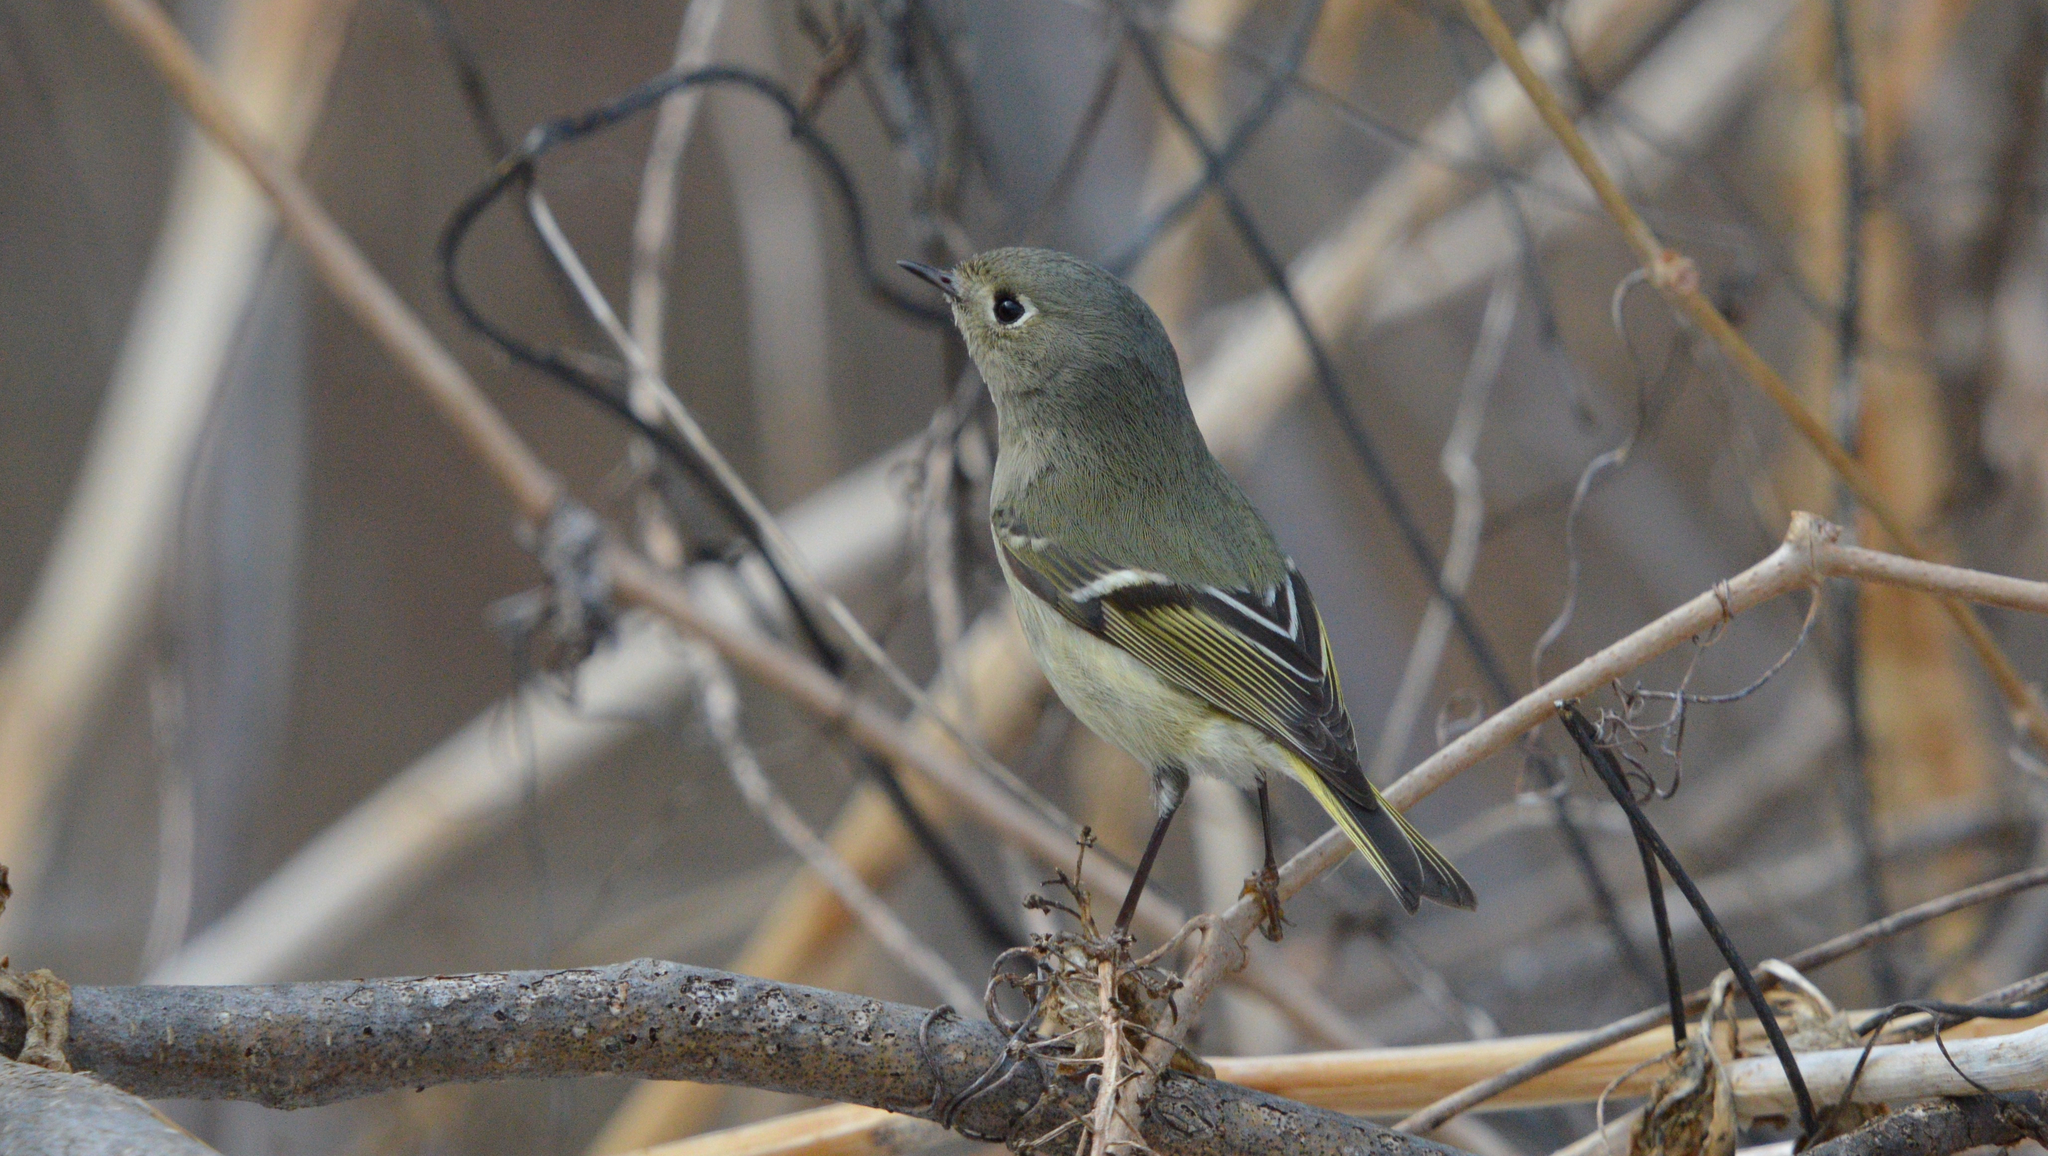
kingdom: Animalia
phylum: Chordata
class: Aves
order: Passeriformes
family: Regulidae
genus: Regulus
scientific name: Regulus calendula
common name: Ruby-crowned kinglet
